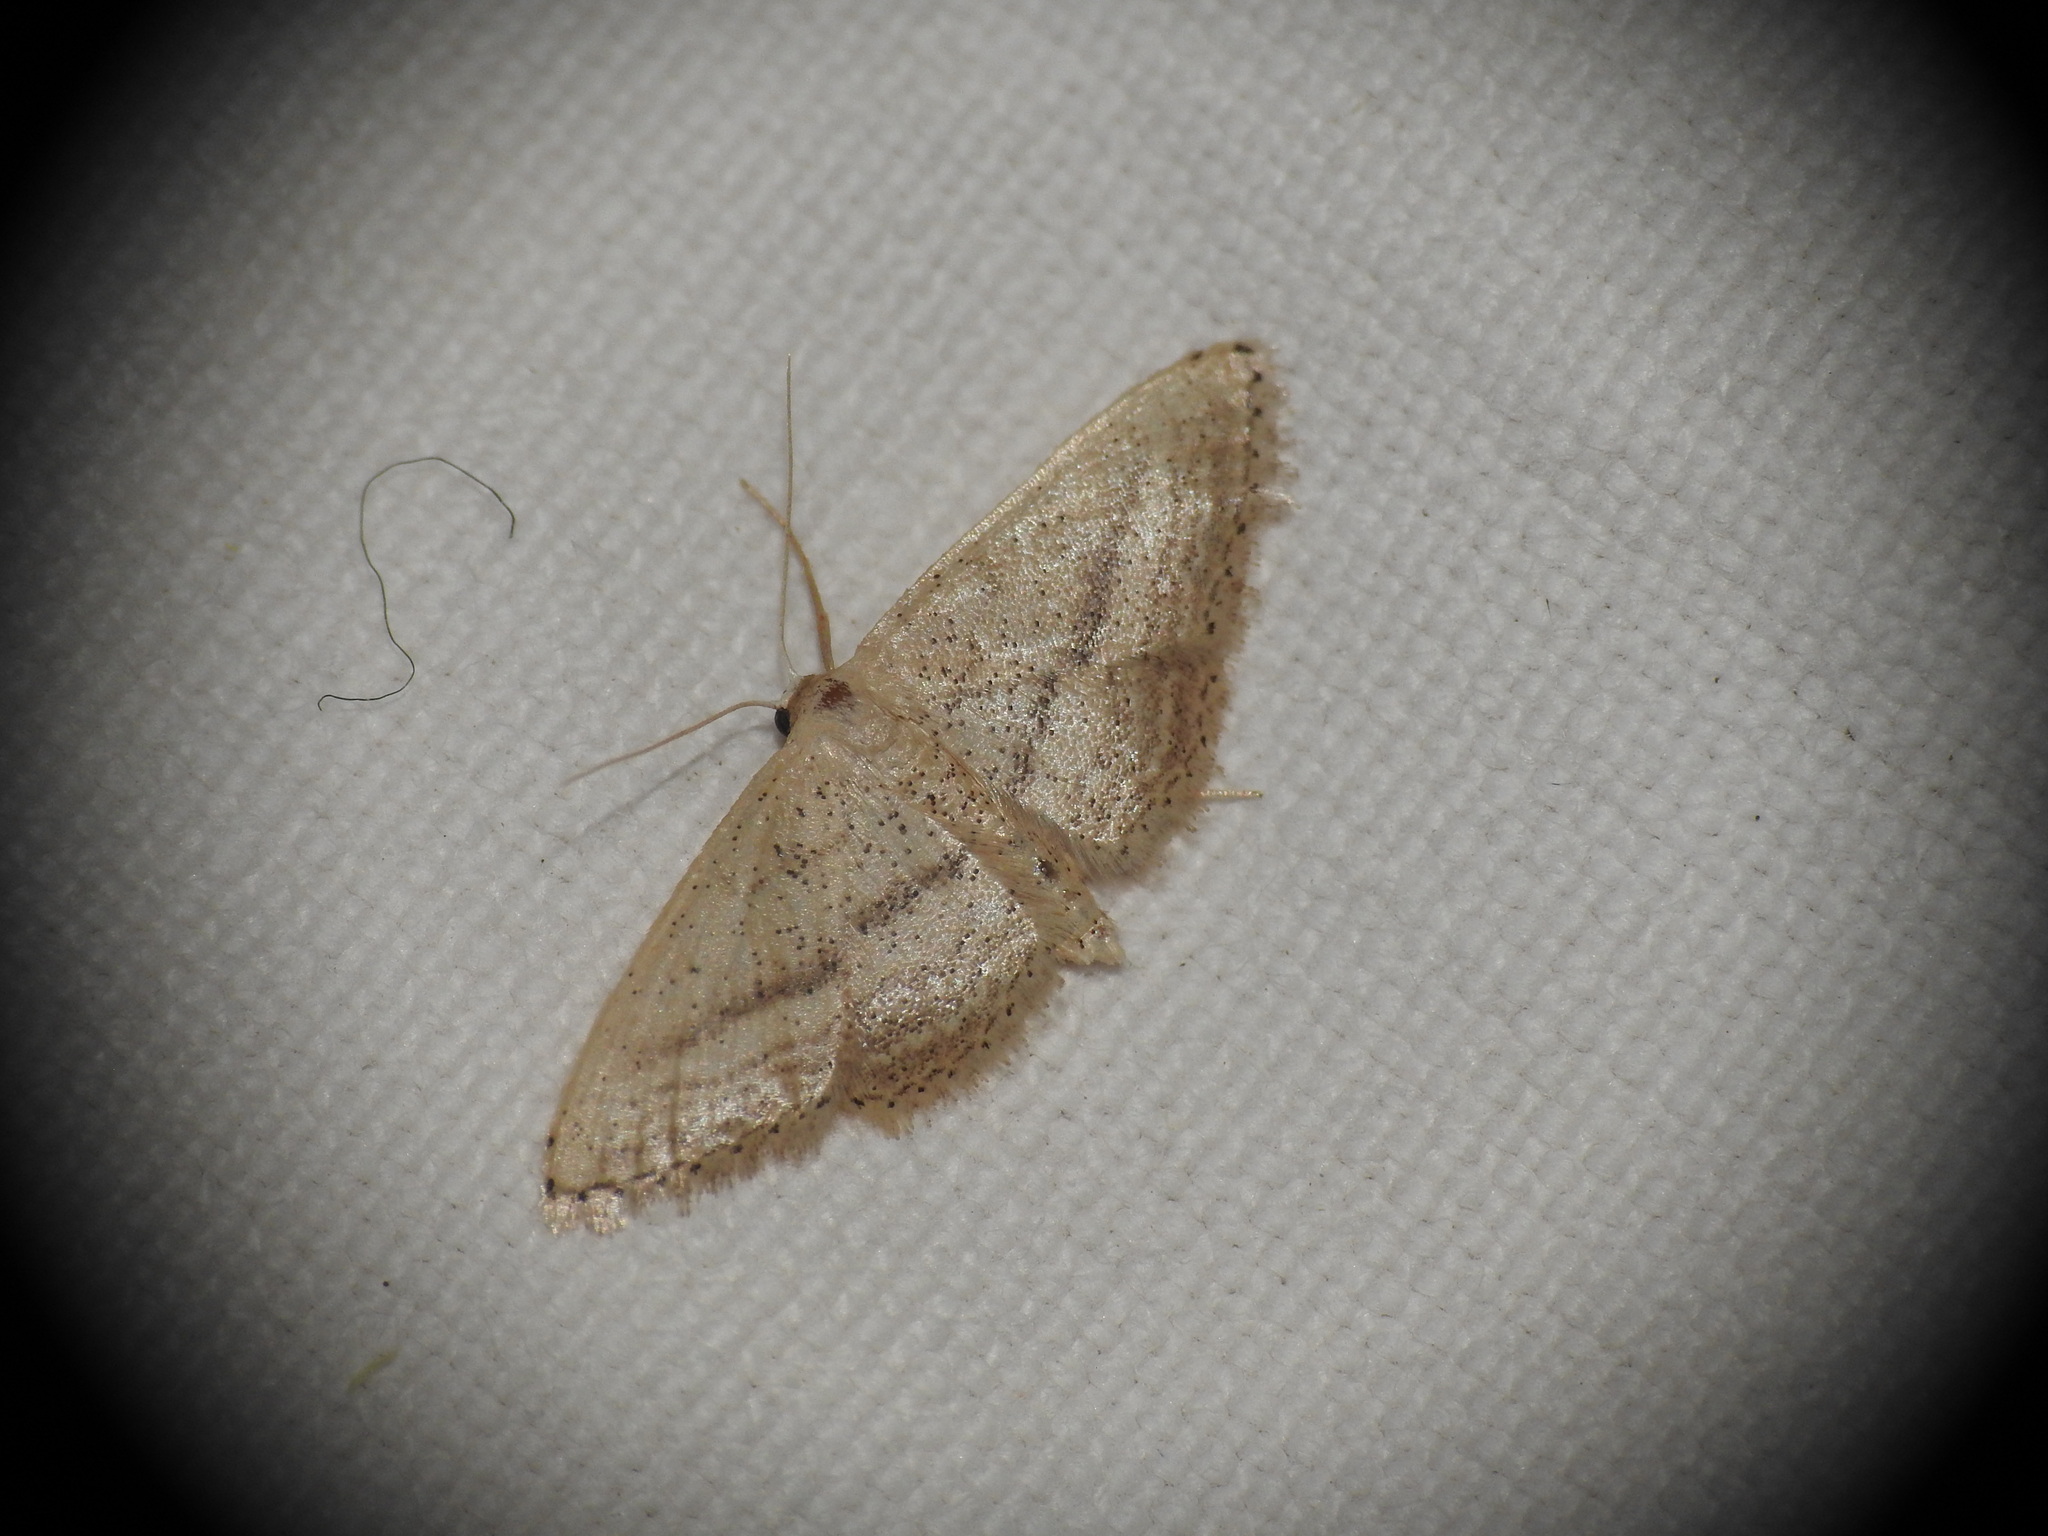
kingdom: Animalia
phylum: Arthropoda
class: Insecta
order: Lepidoptera
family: Geometridae
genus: Idaea
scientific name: Idaea mediaria
